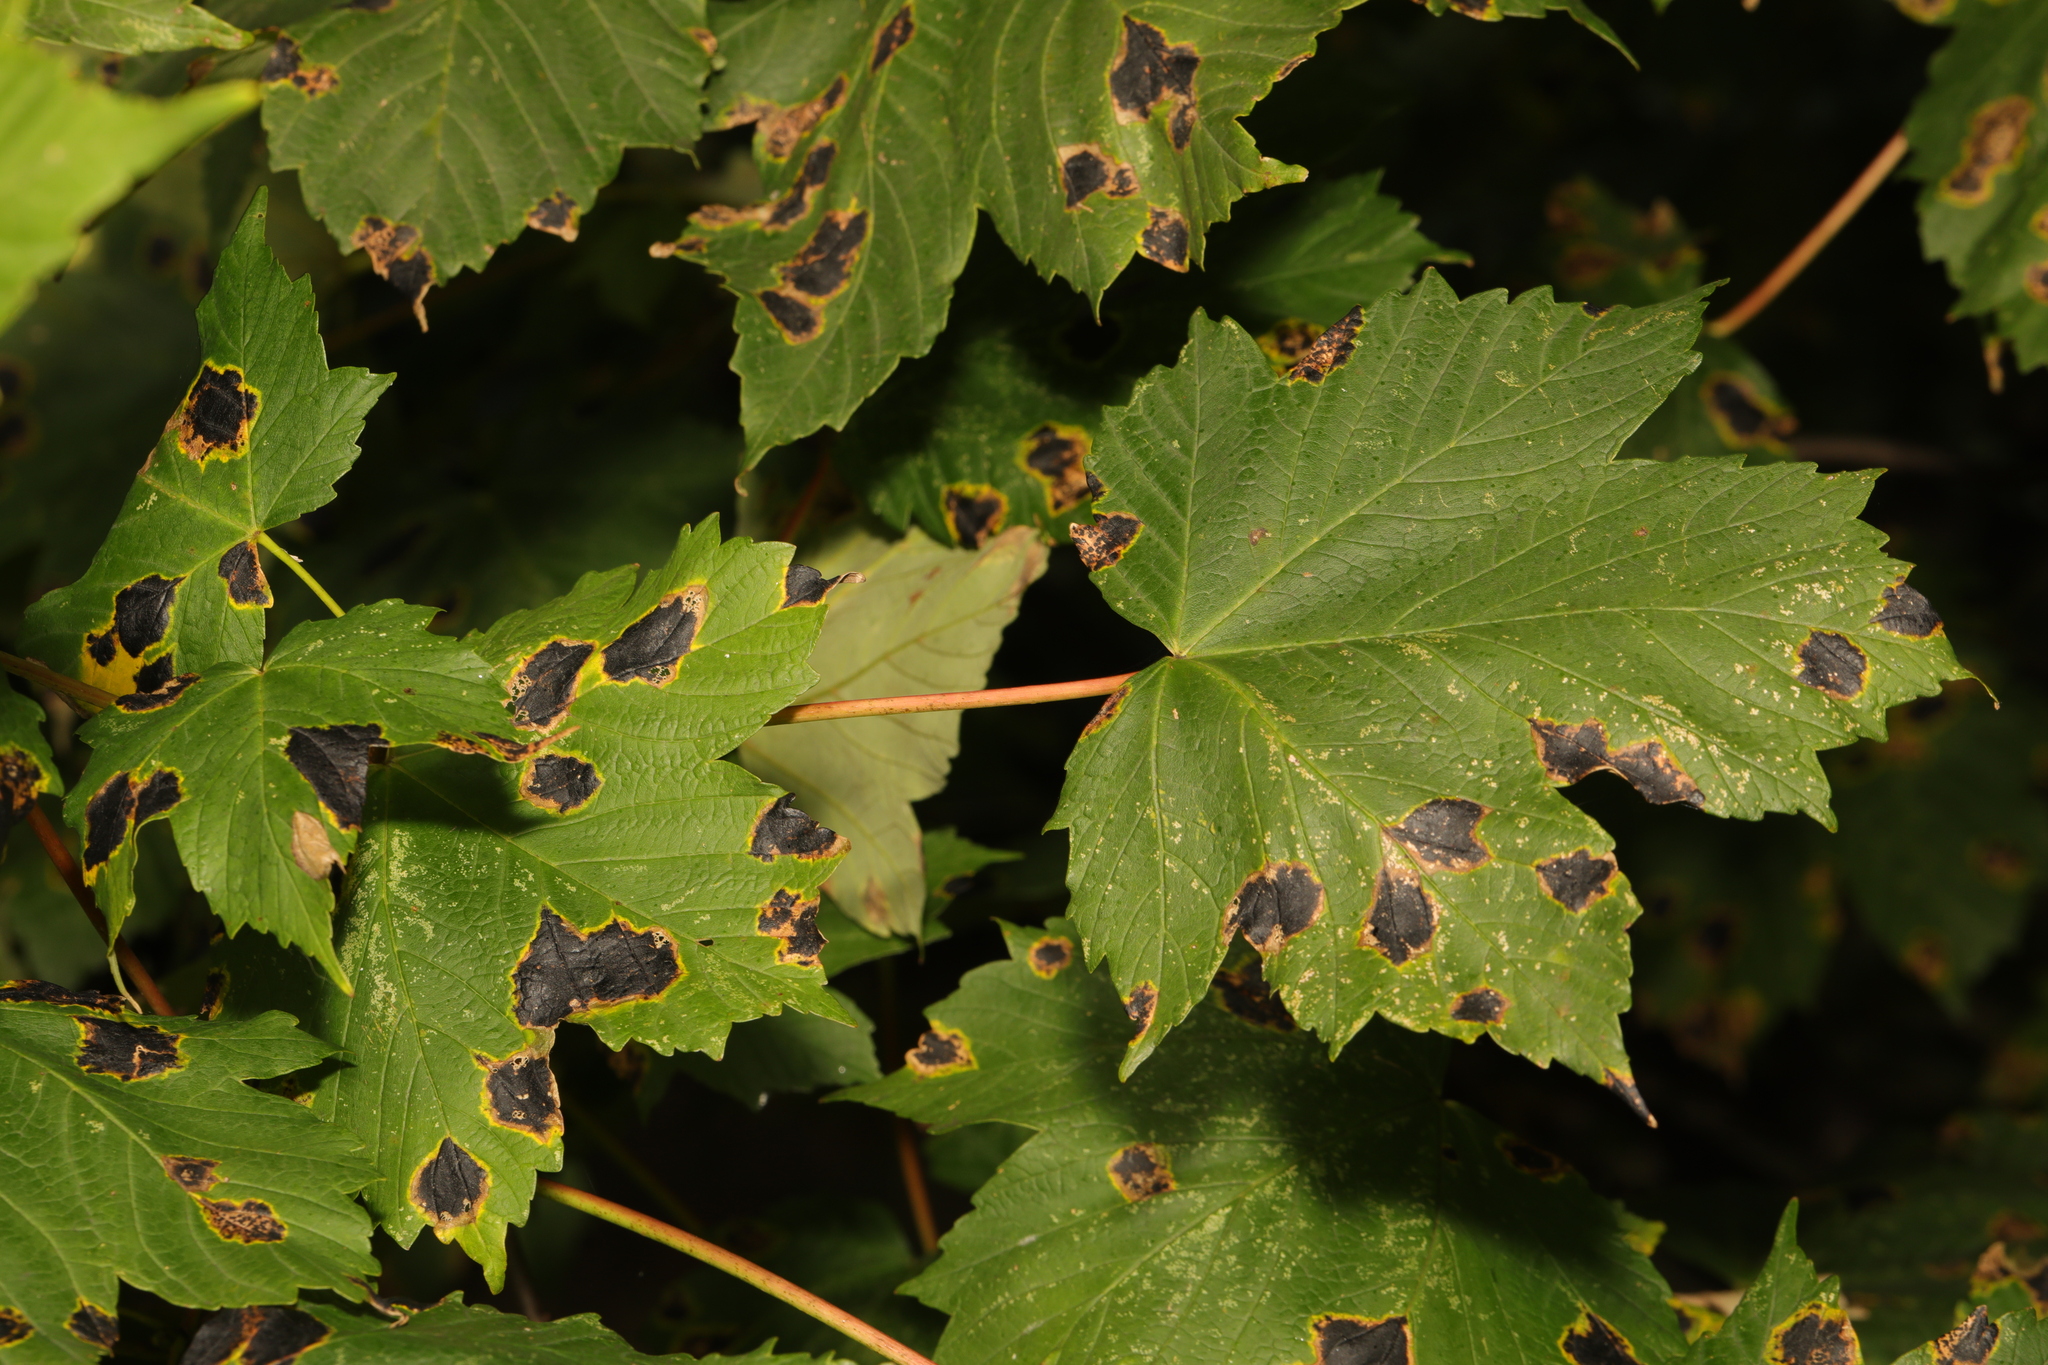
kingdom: Plantae
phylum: Tracheophyta
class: Magnoliopsida
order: Sapindales
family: Sapindaceae
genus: Acer
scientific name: Acer pseudoplatanus
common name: Sycamore
